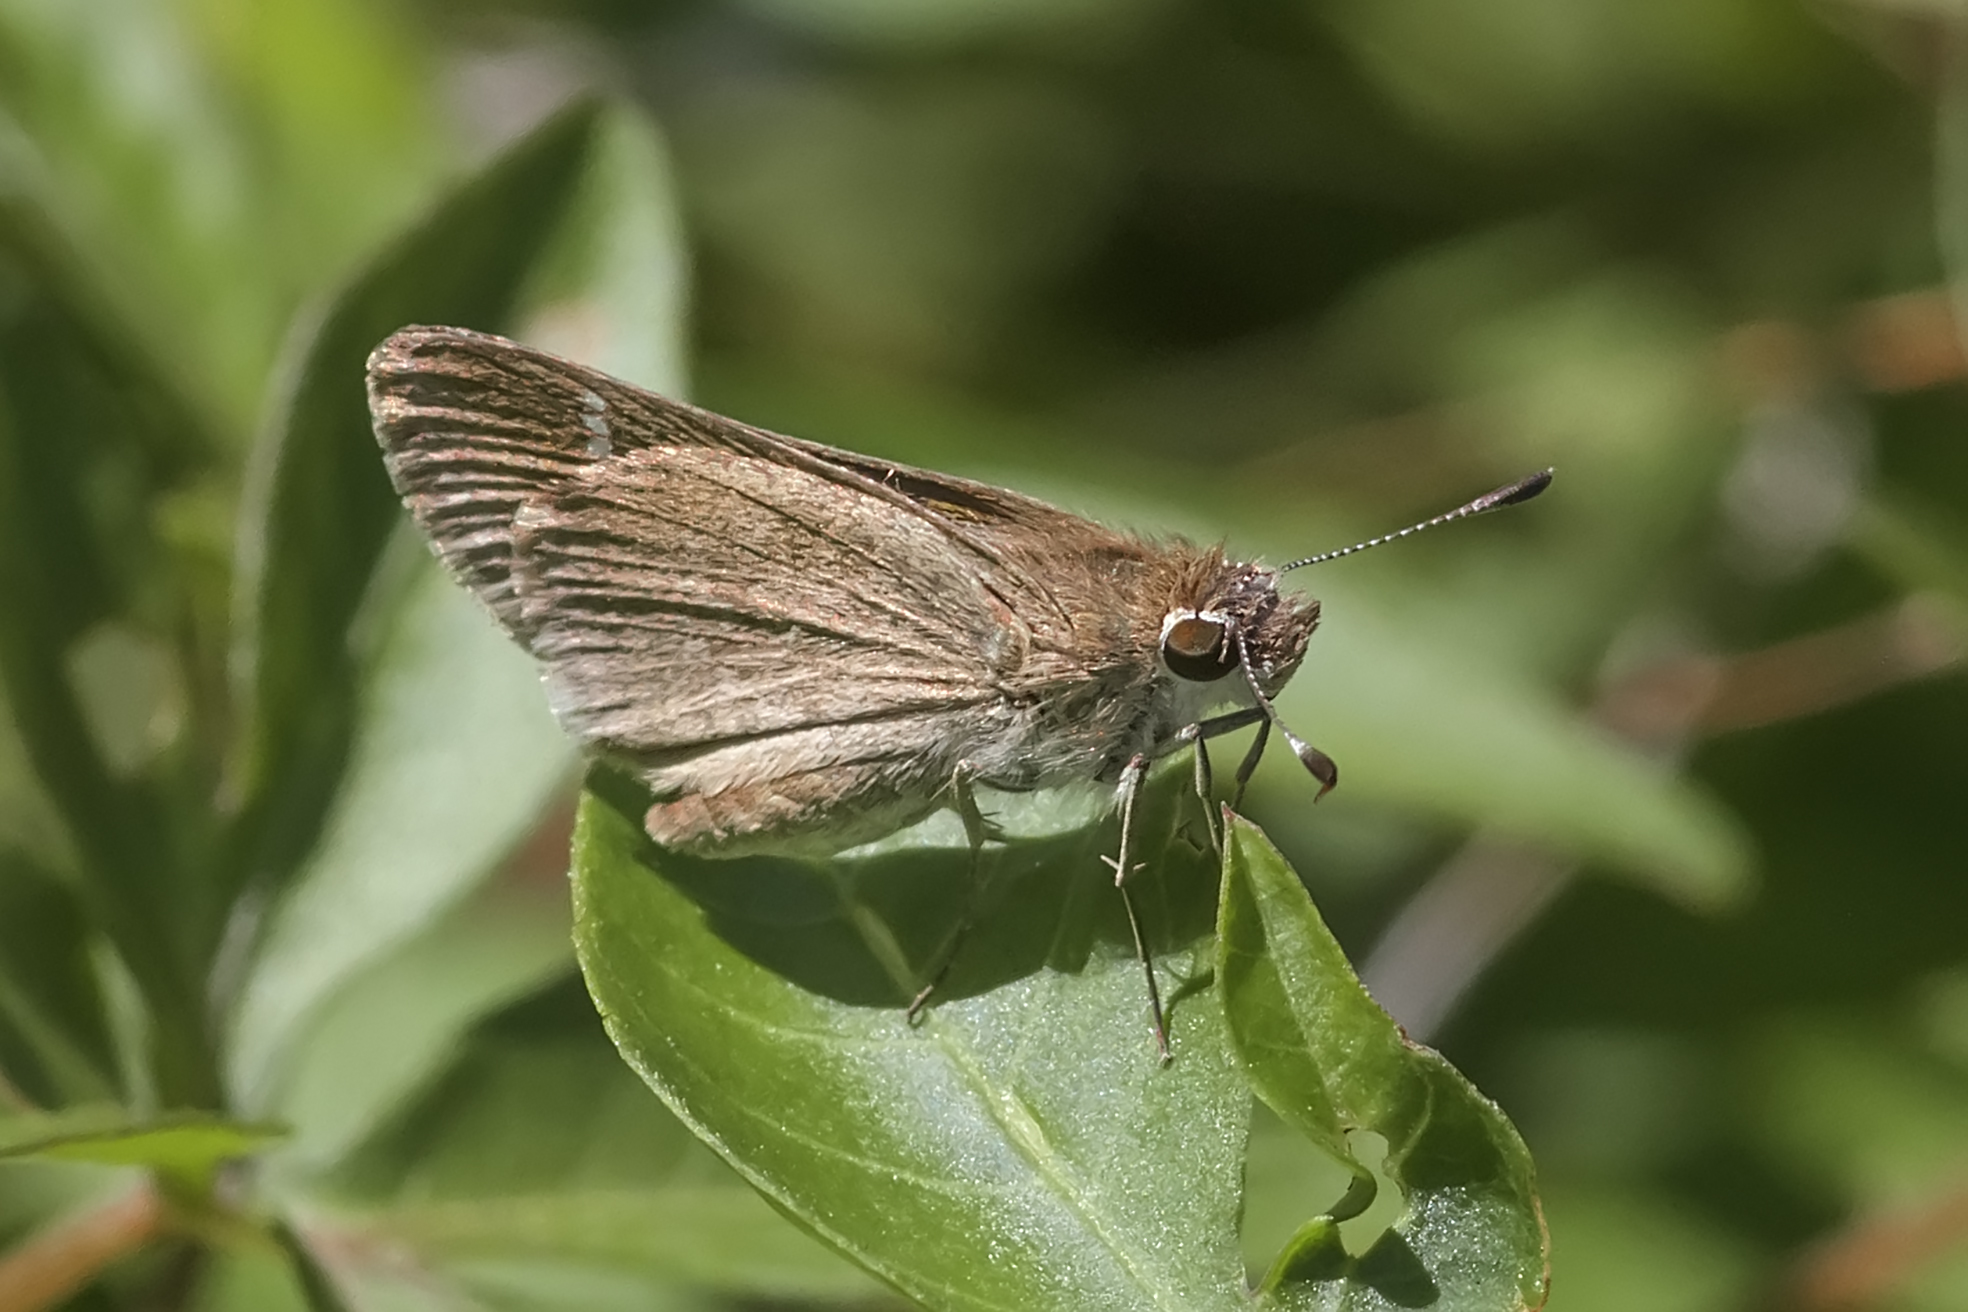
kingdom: Animalia
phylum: Arthropoda
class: Insecta
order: Lepidoptera
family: Hesperiidae
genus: Lerodea
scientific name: Lerodea eufala
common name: Eufala skipper
